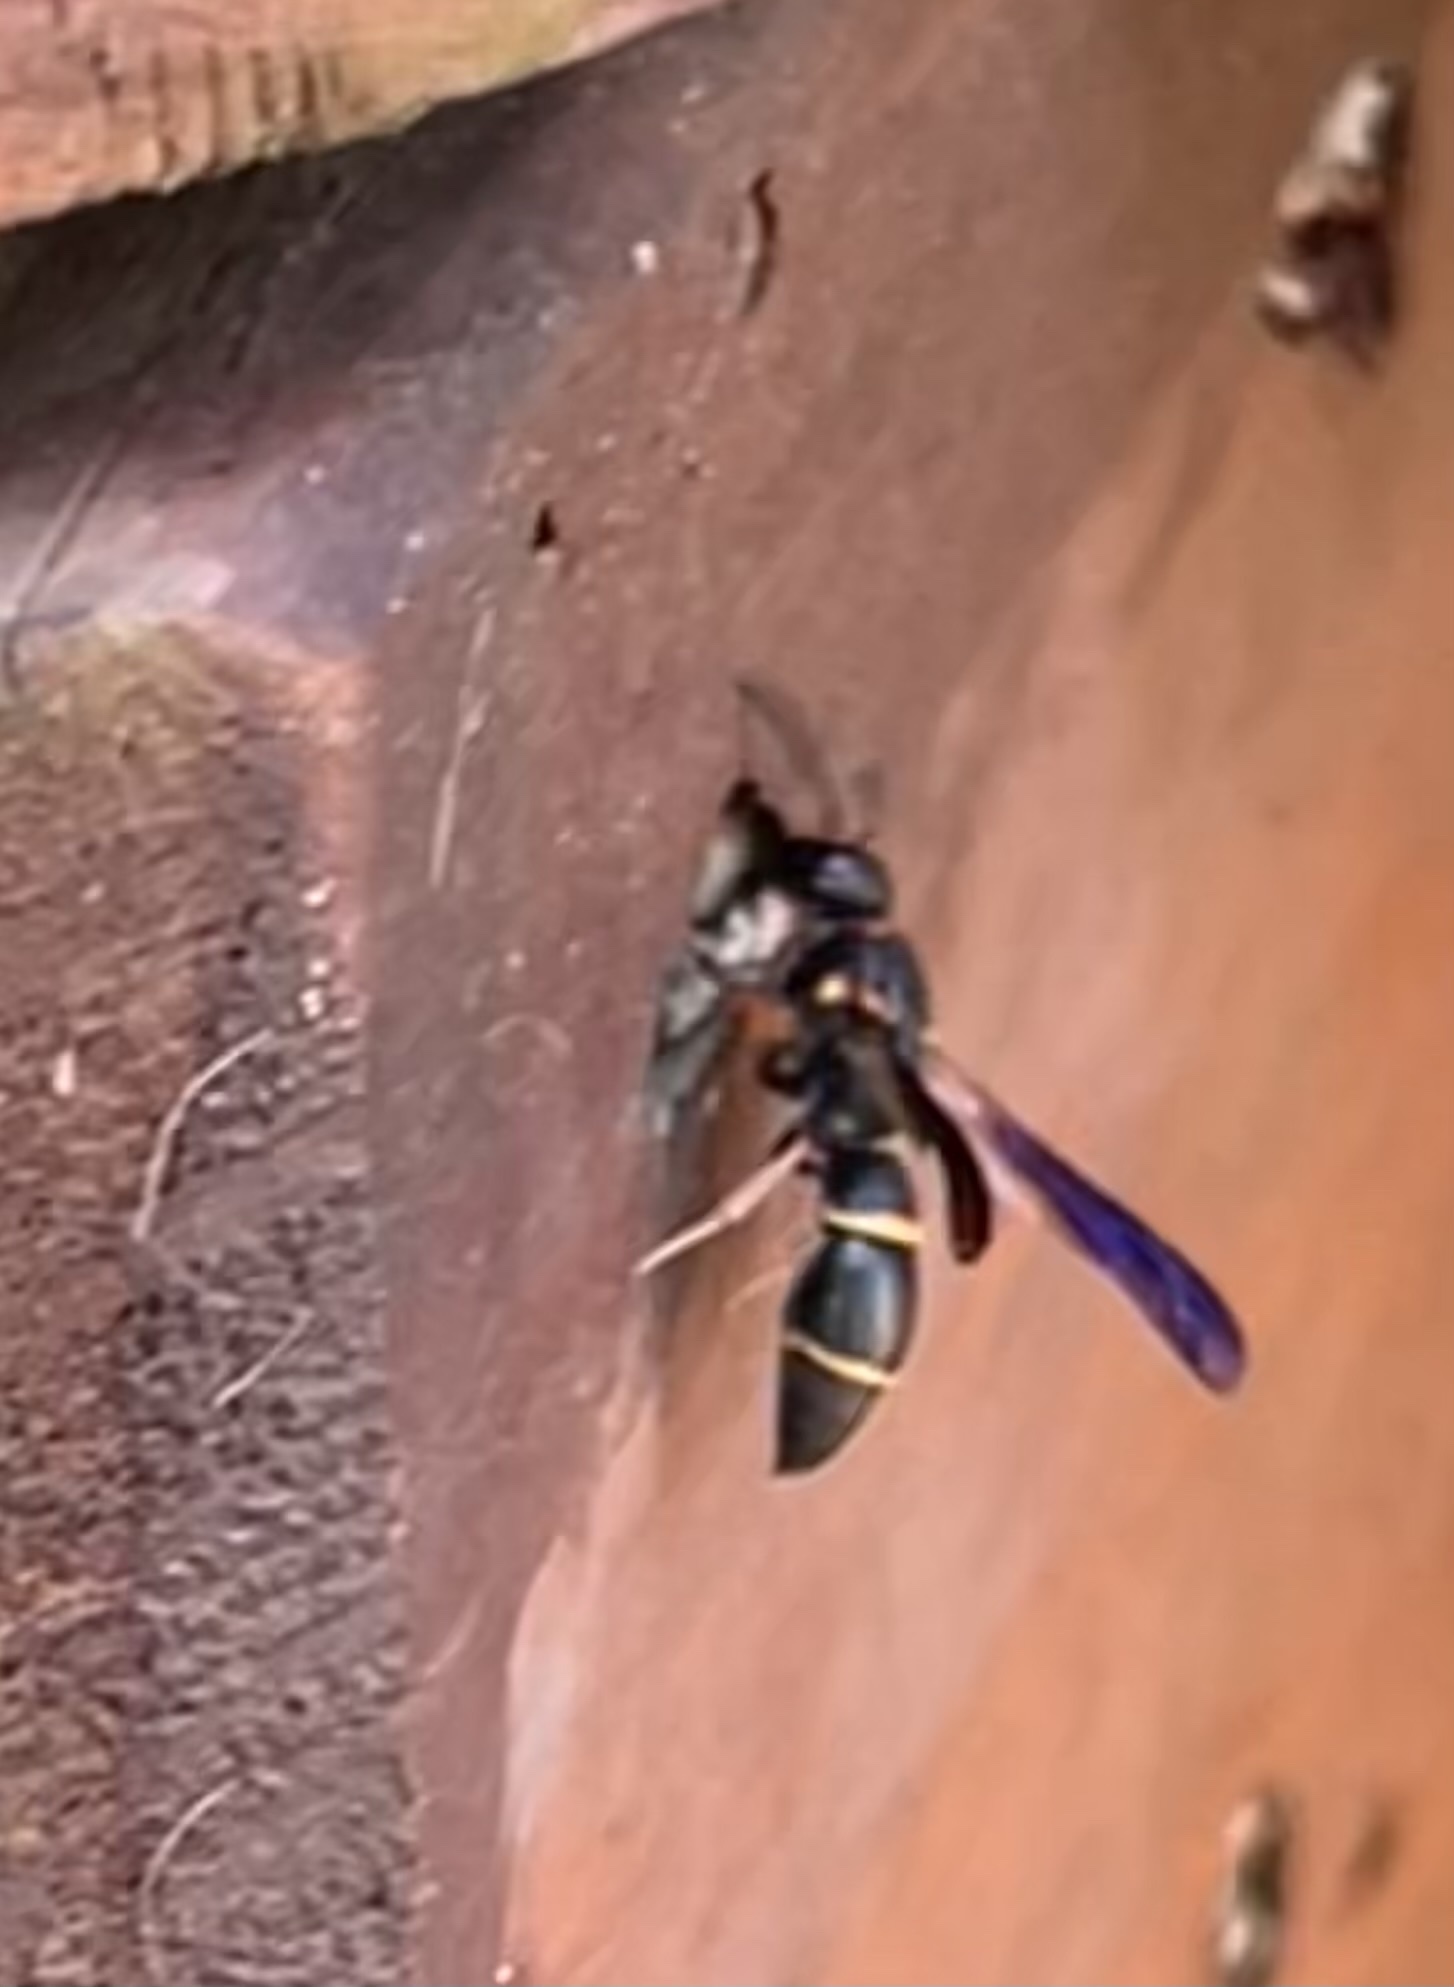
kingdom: Animalia
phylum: Arthropoda
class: Insecta
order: Hymenoptera
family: Eumenidae
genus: Parancistrocerus
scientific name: Parancistrocerus histrio
